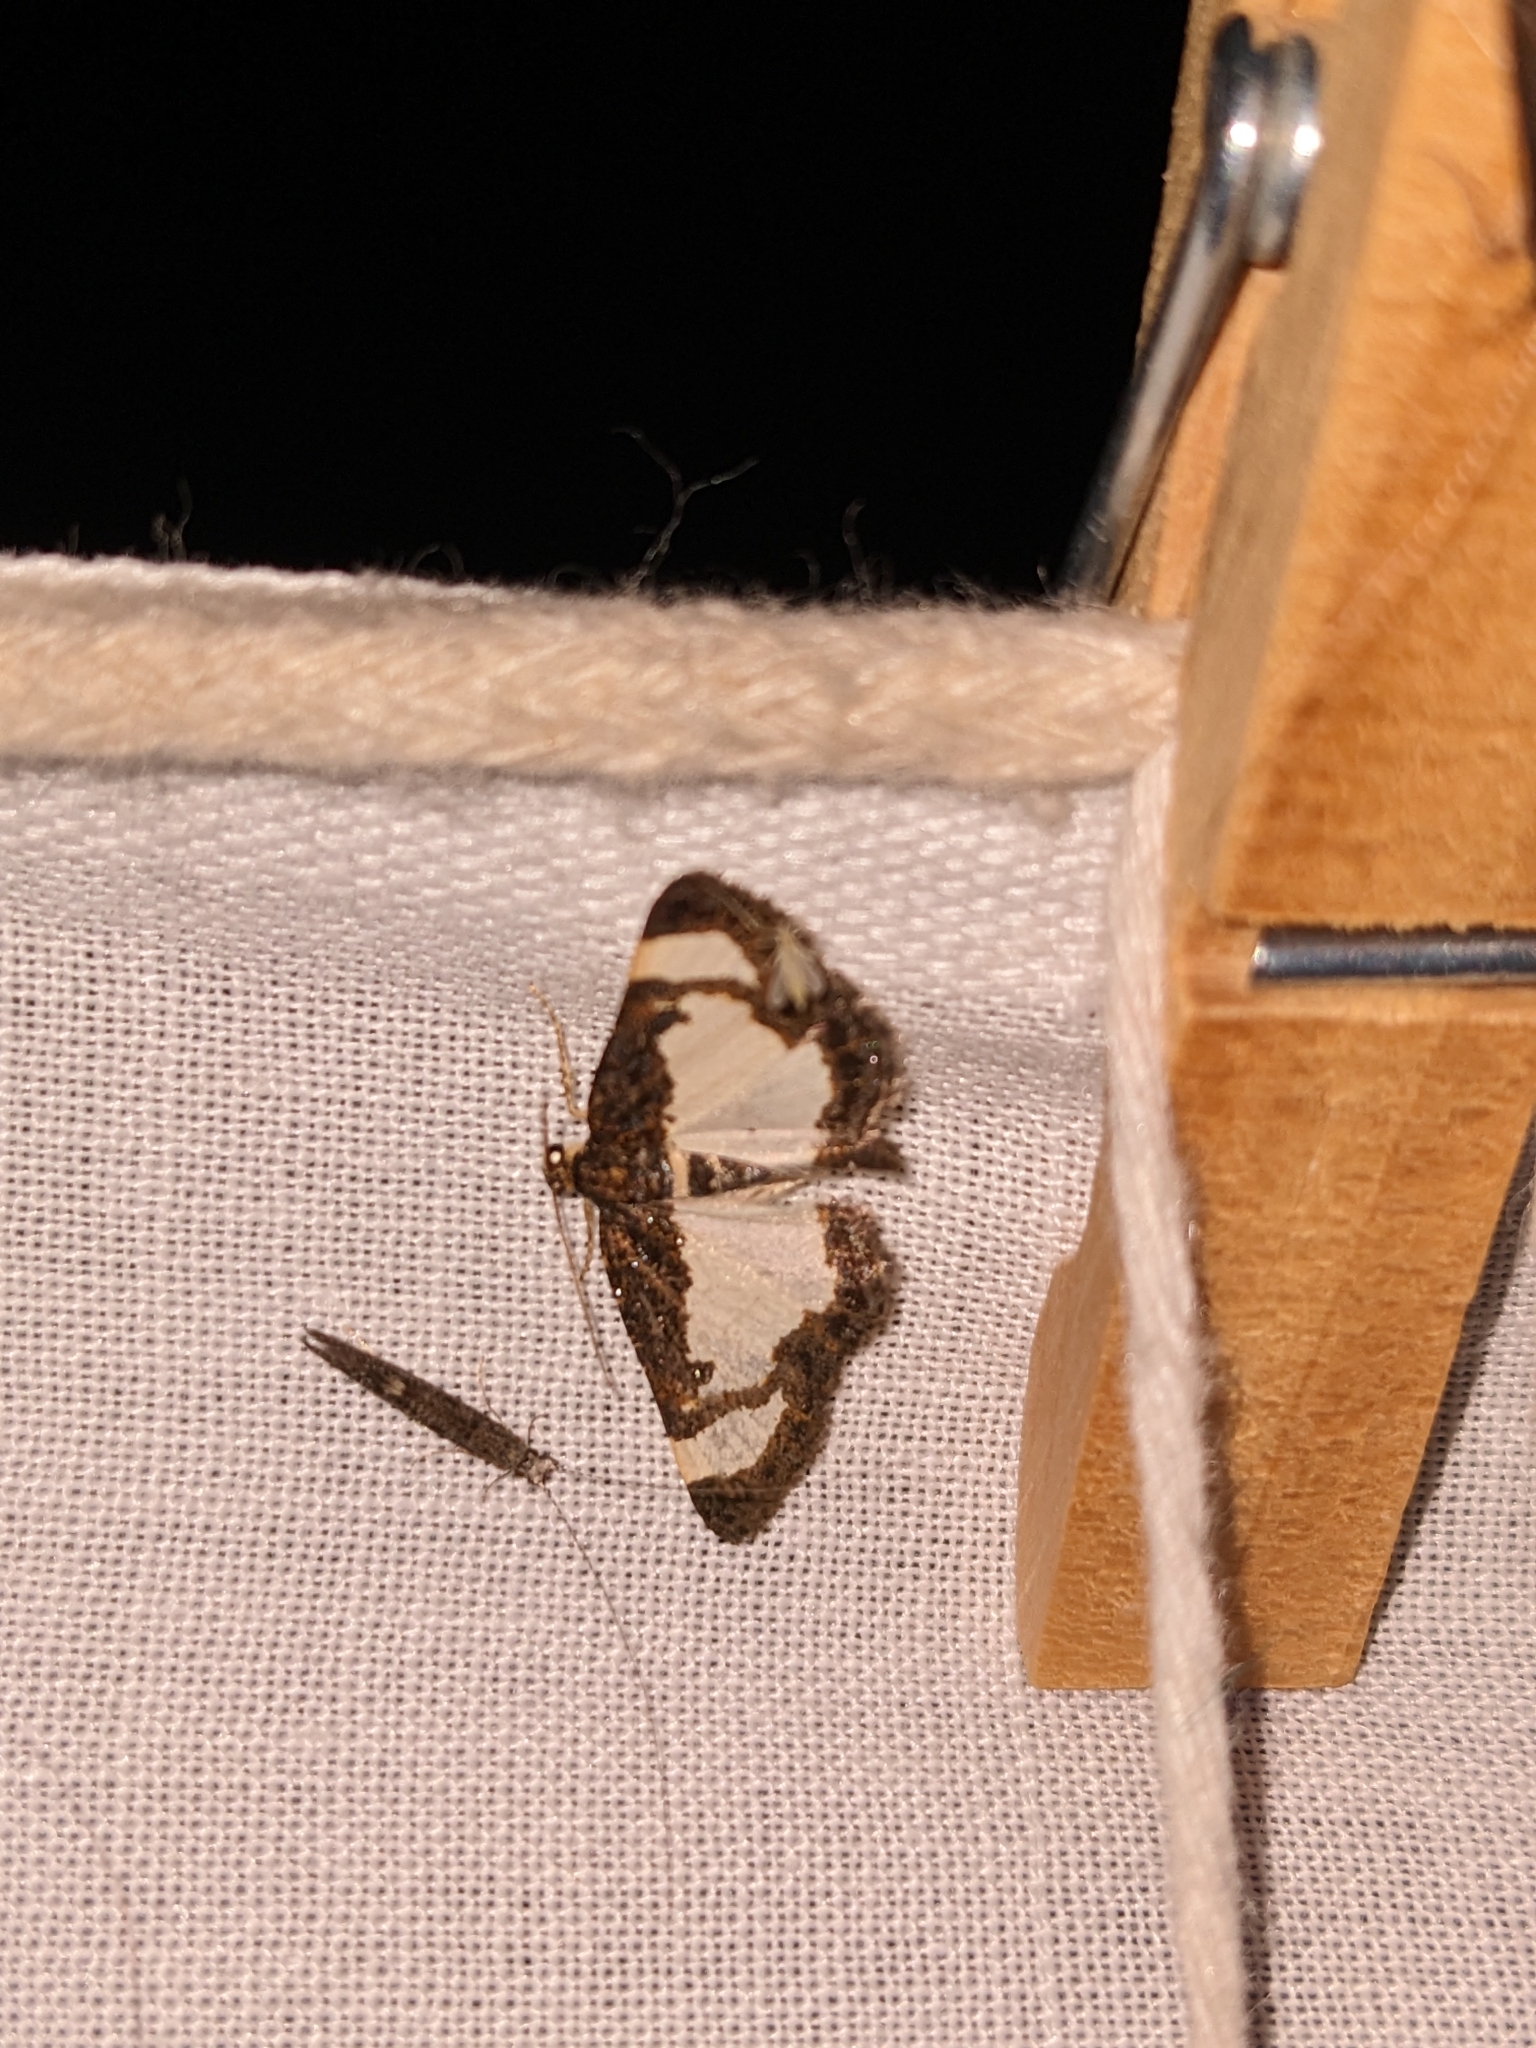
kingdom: Animalia
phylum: Arthropoda
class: Insecta
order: Lepidoptera
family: Geometridae
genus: Heliomata
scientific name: Heliomata cycladata
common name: Common spring moth
